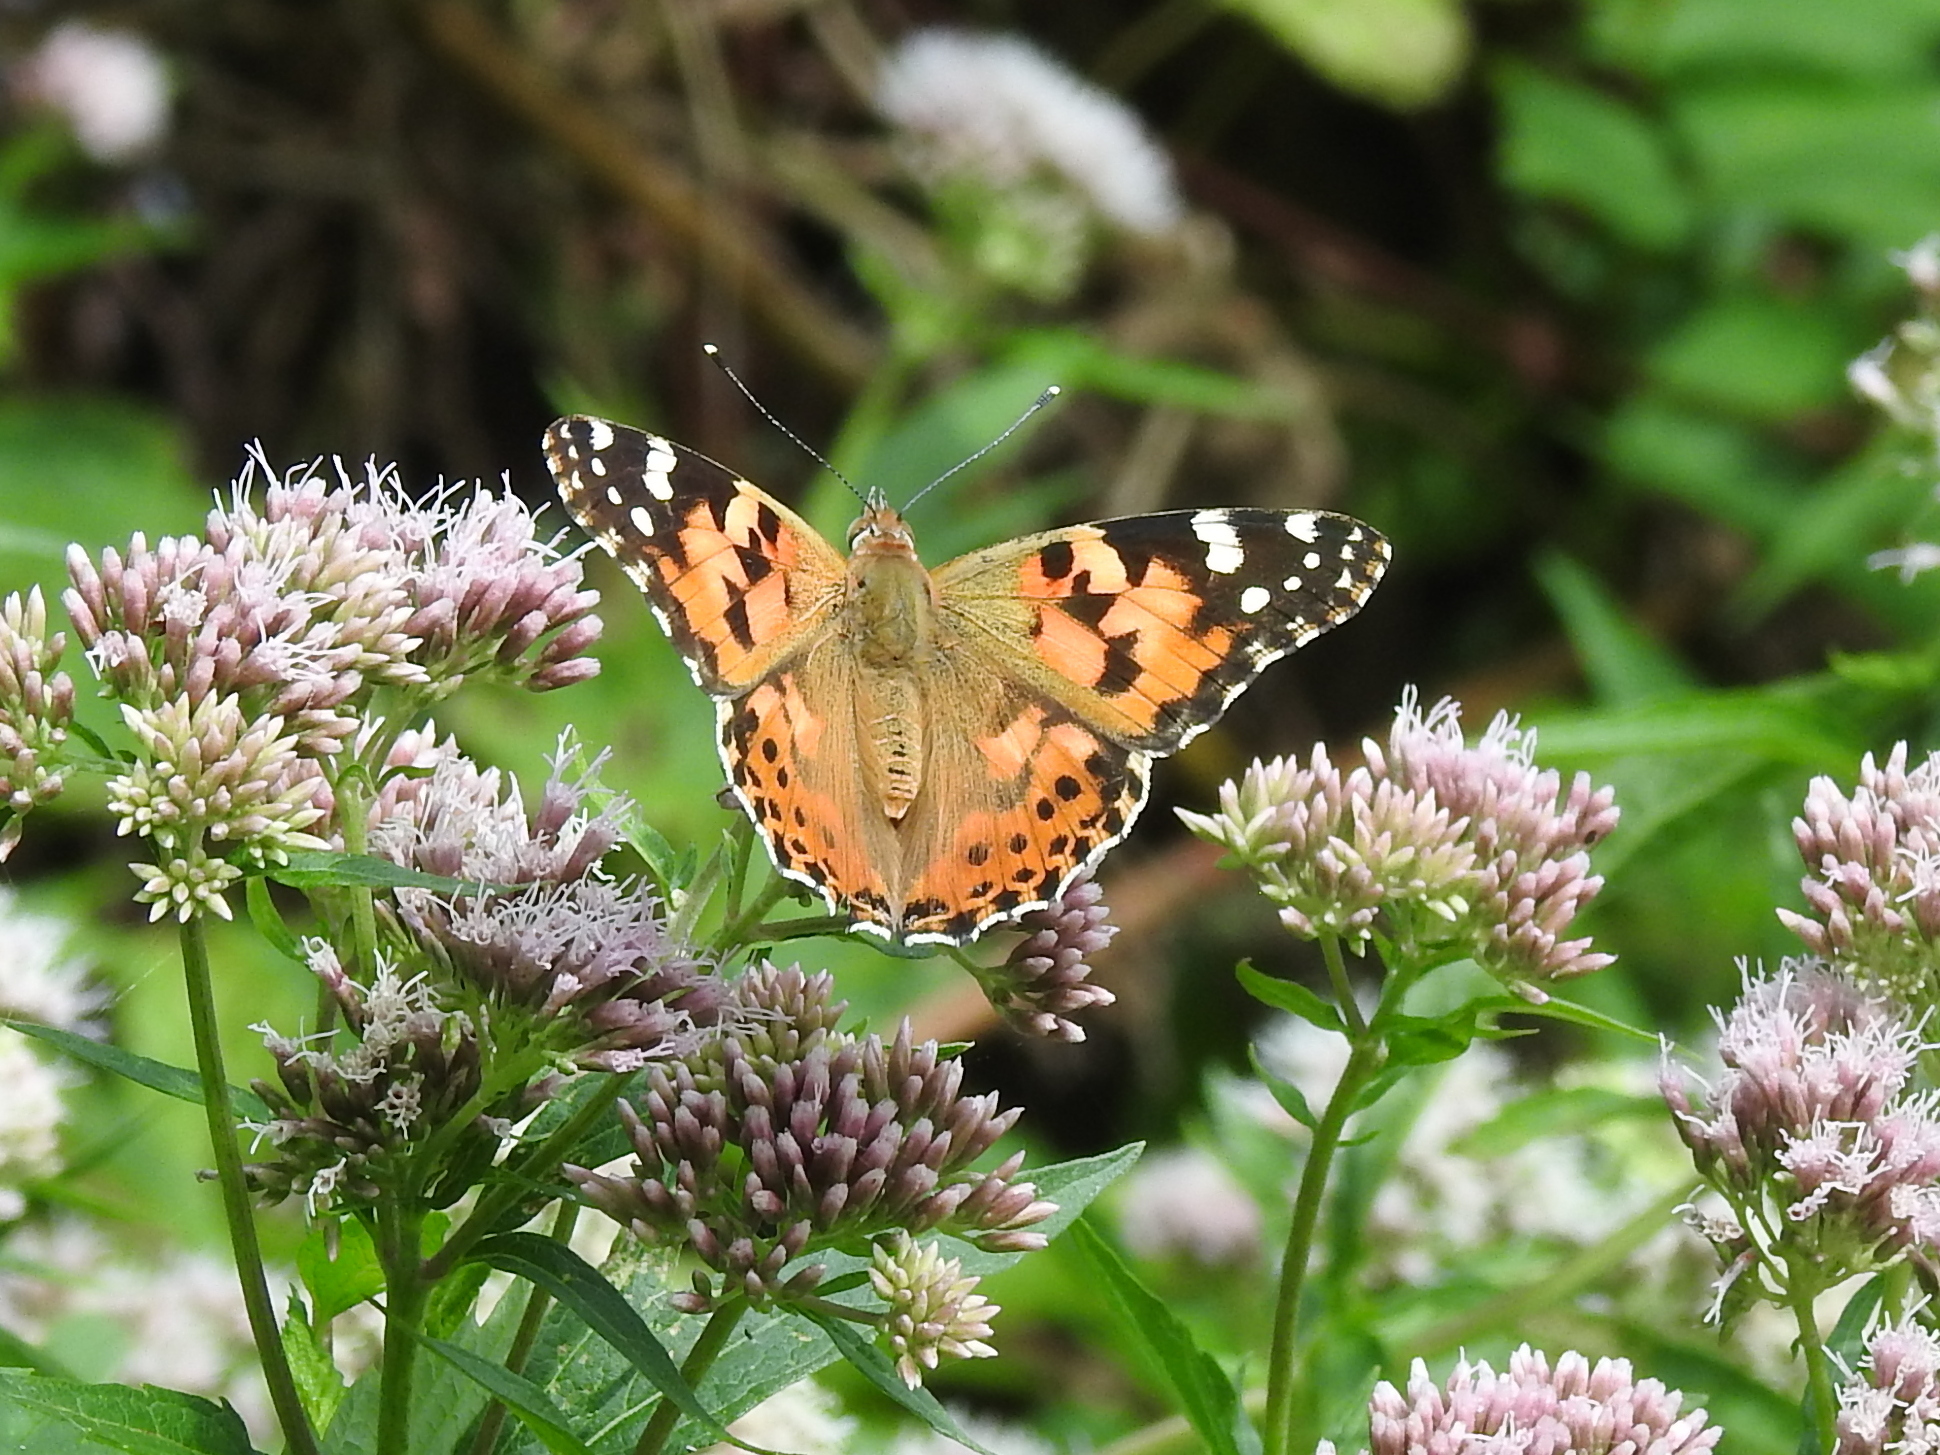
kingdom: Animalia
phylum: Arthropoda
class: Insecta
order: Lepidoptera
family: Nymphalidae
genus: Vanessa
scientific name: Vanessa cardui
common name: Painted lady
